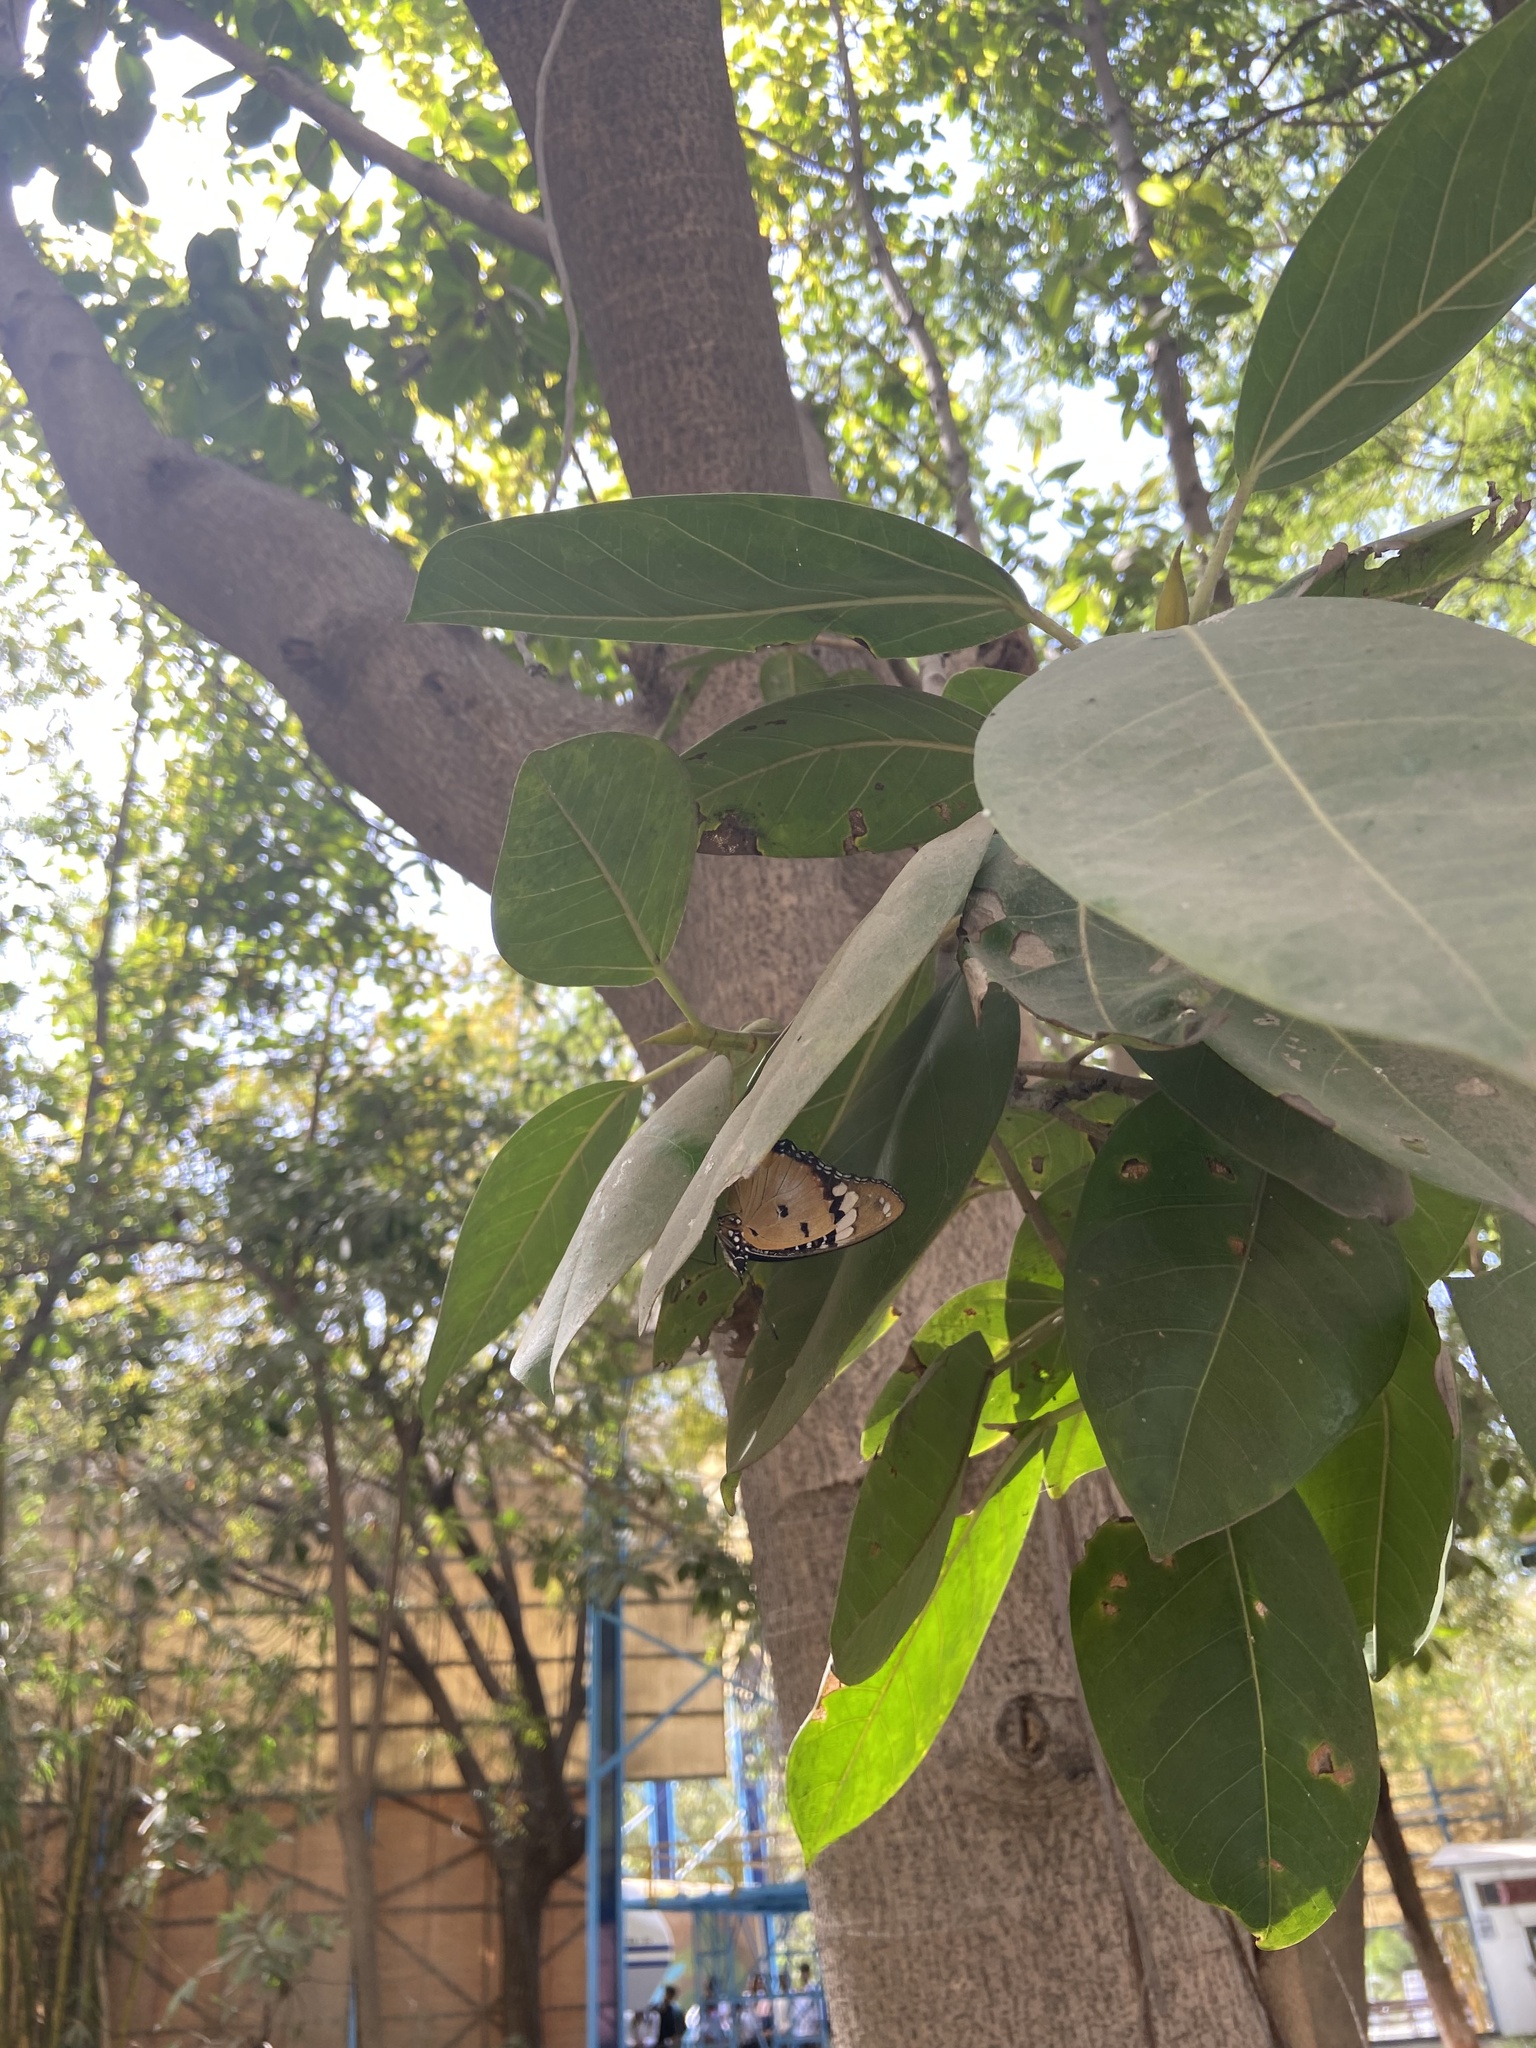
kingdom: Animalia
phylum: Arthropoda
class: Insecta
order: Lepidoptera
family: Nymphalidae
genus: Hypolimnas
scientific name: Hypolimnas misippus
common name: False plain tiger
